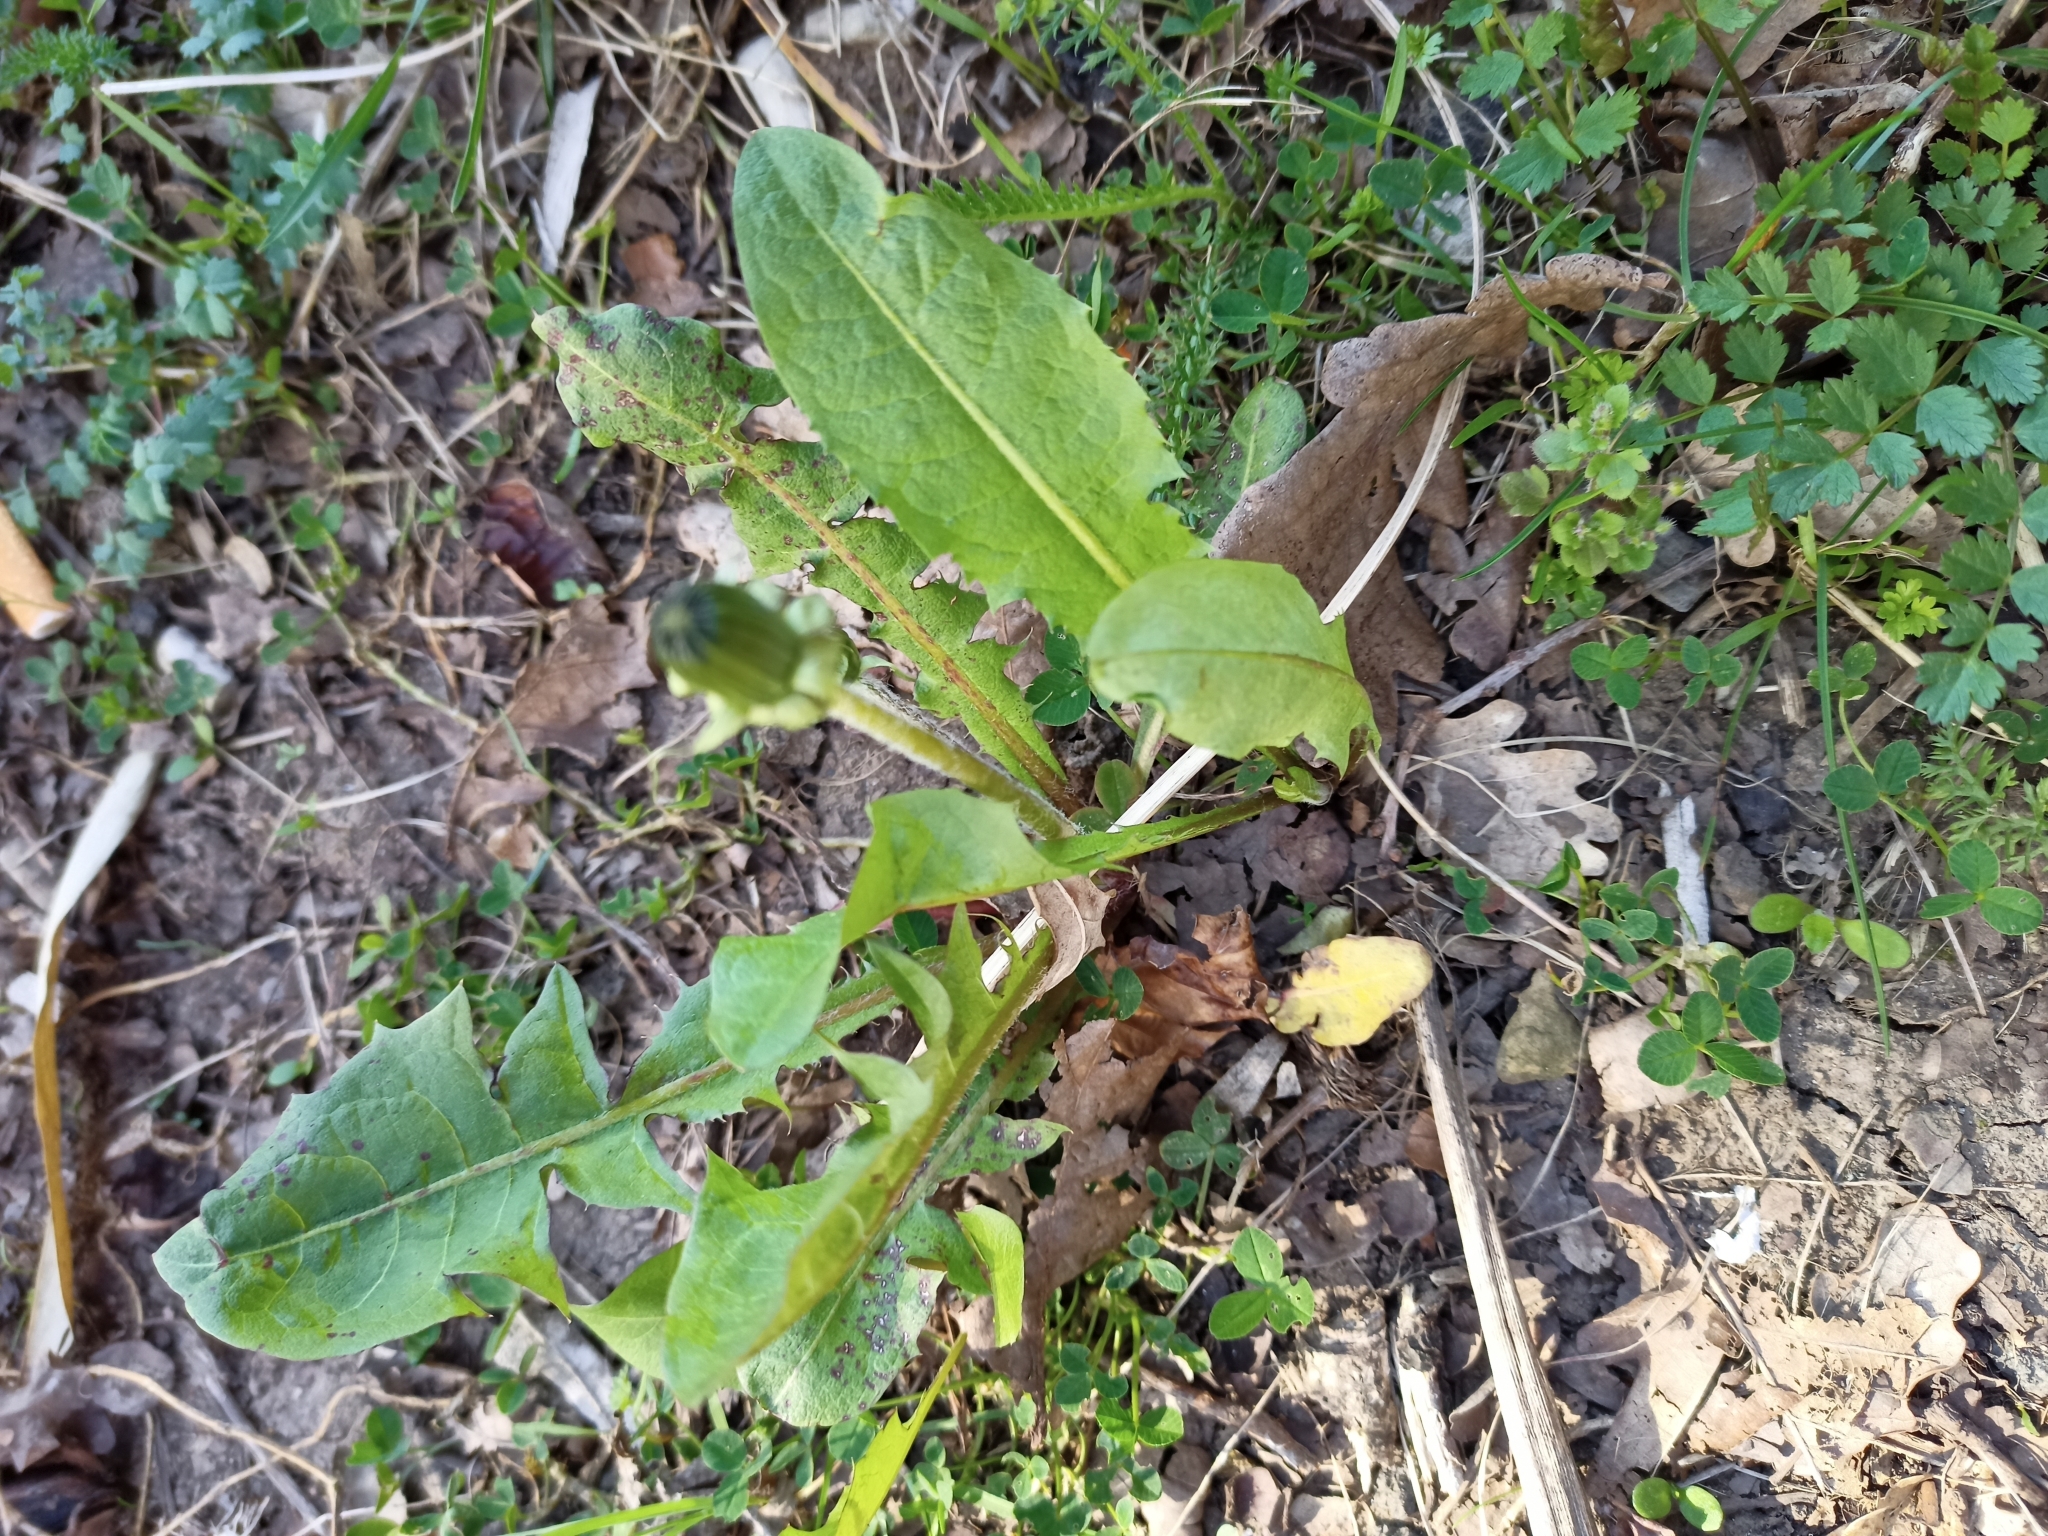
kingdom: Plantae
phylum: Tracheophyta
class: Magnoliopsida
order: Asterales
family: Asteraceae
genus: Taraxacum
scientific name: Taraxacum officinale
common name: Common dandelion
